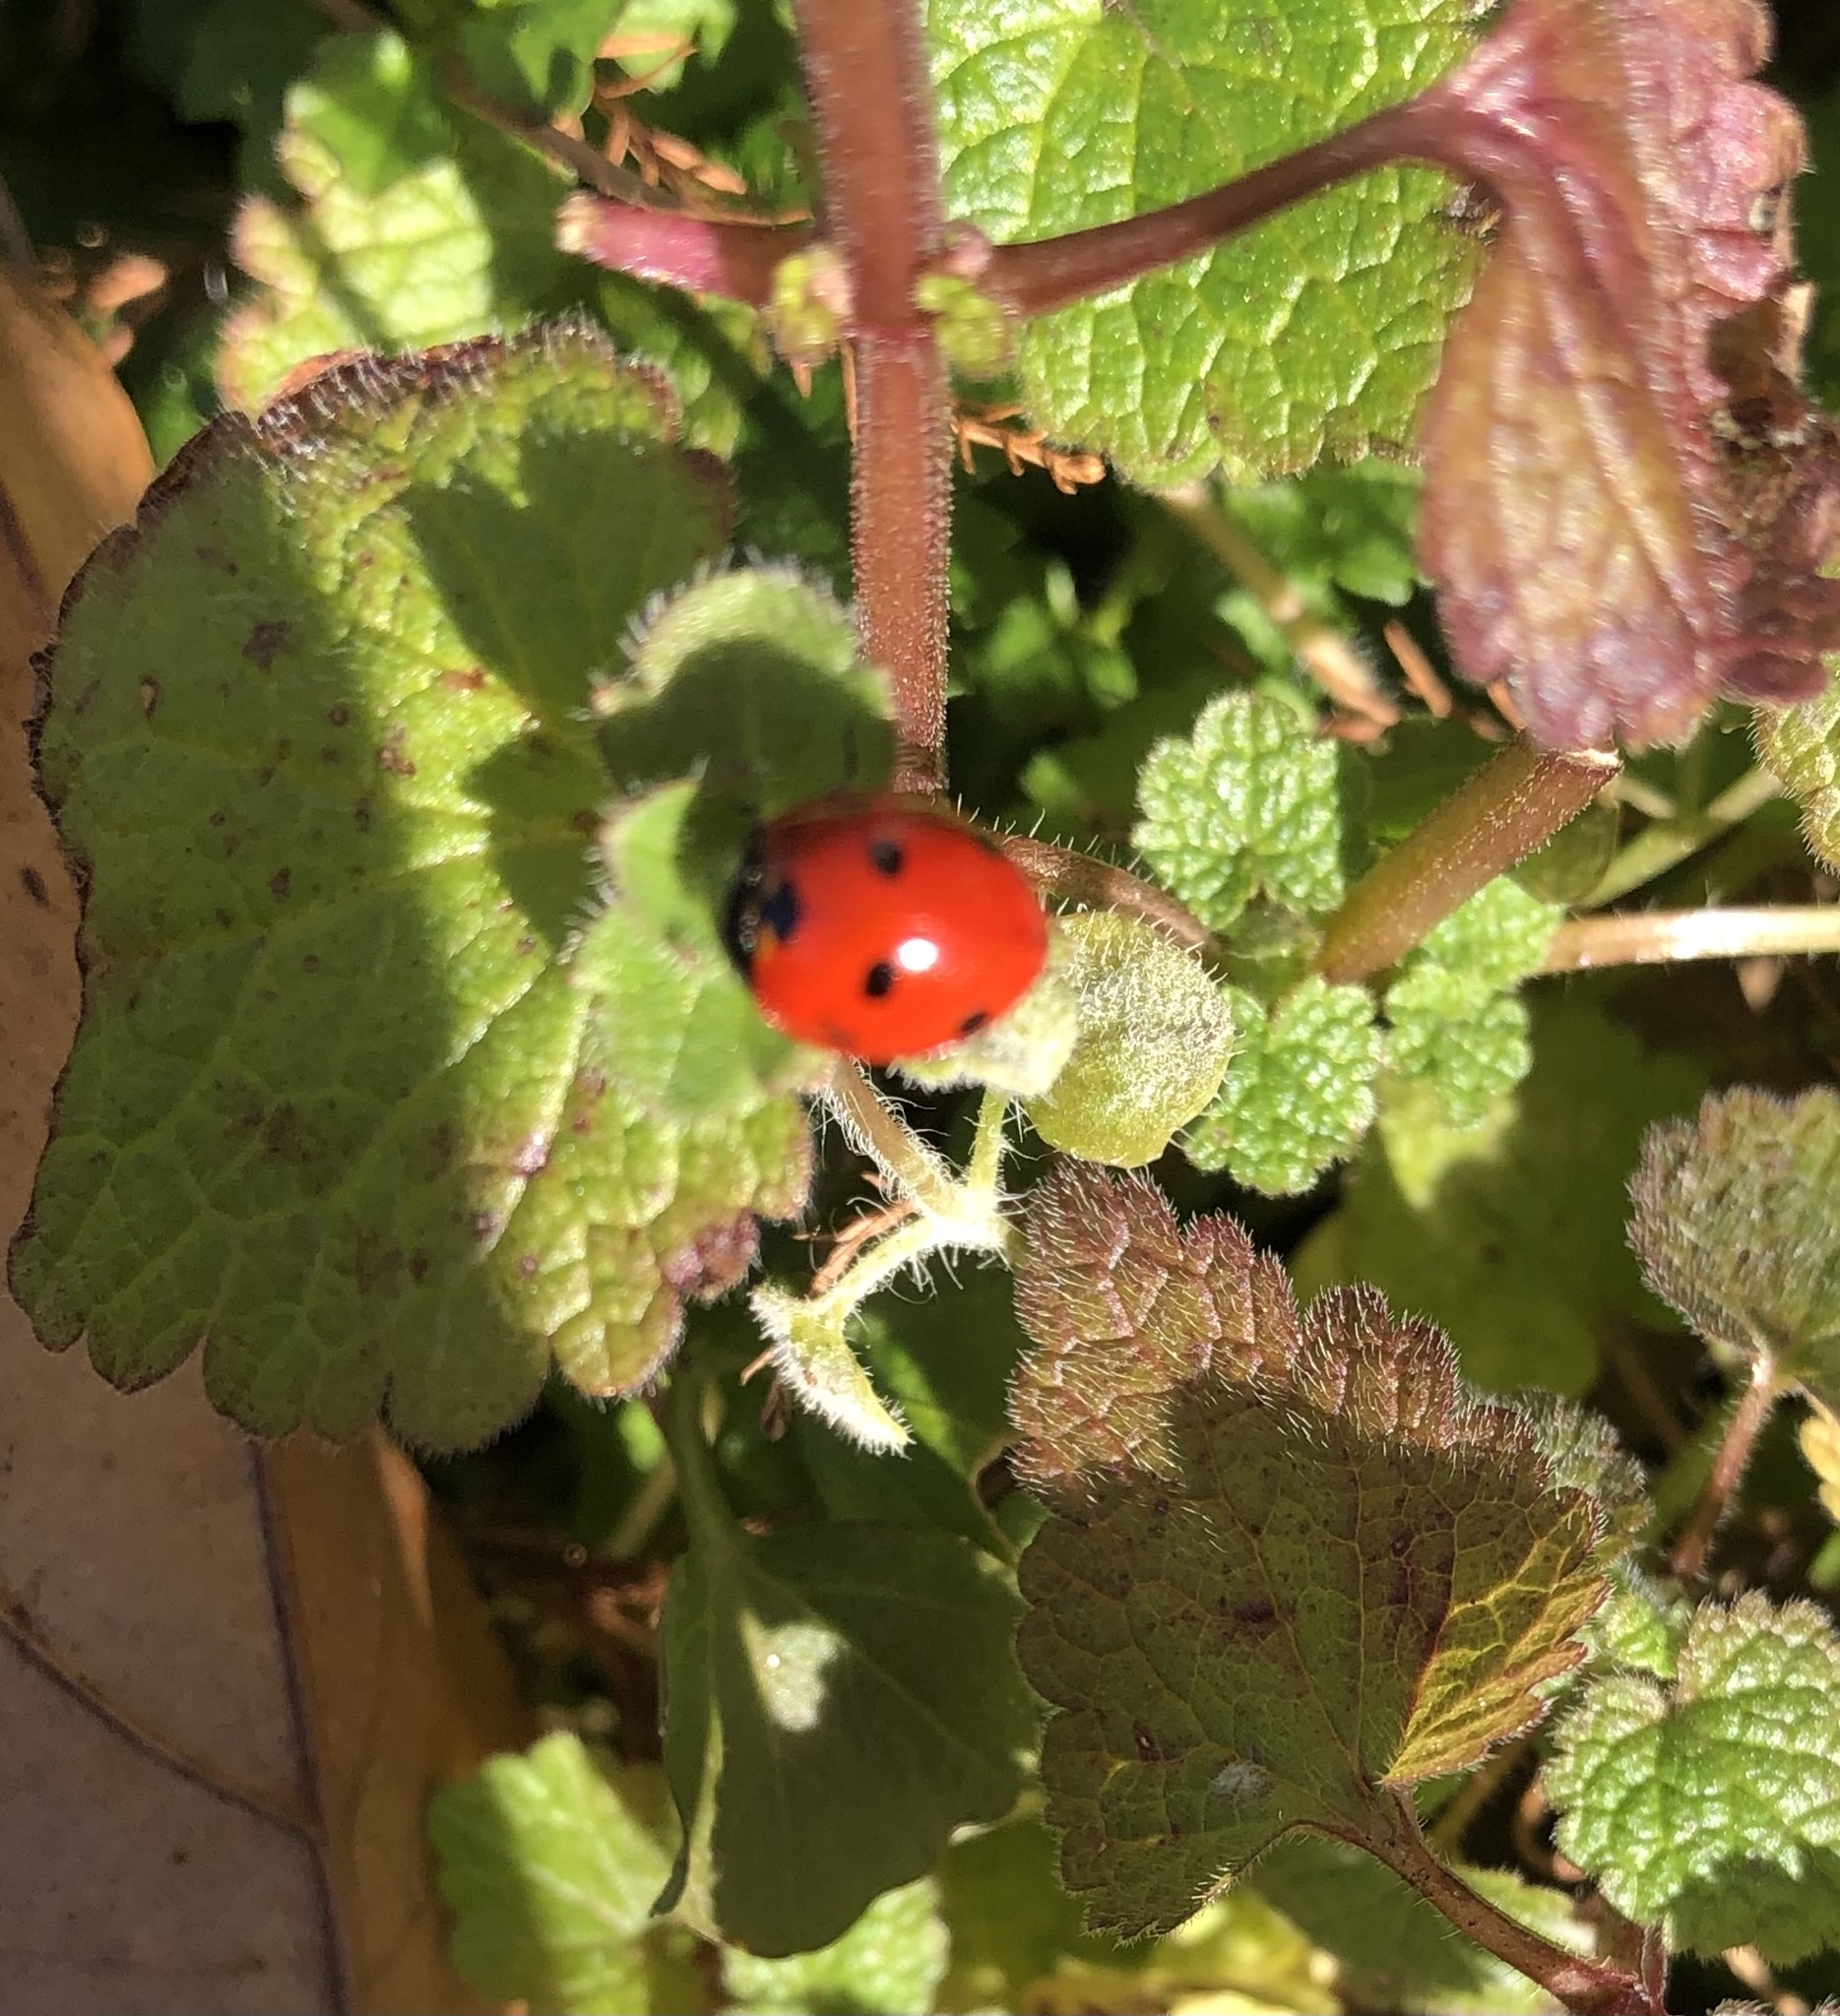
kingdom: Animalia
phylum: Arthropoda
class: Insecta
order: Coleoptera
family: Coccinellidae
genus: Coccinella
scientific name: Coccinella septempunctata
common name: Sevenspotted lady beetle
